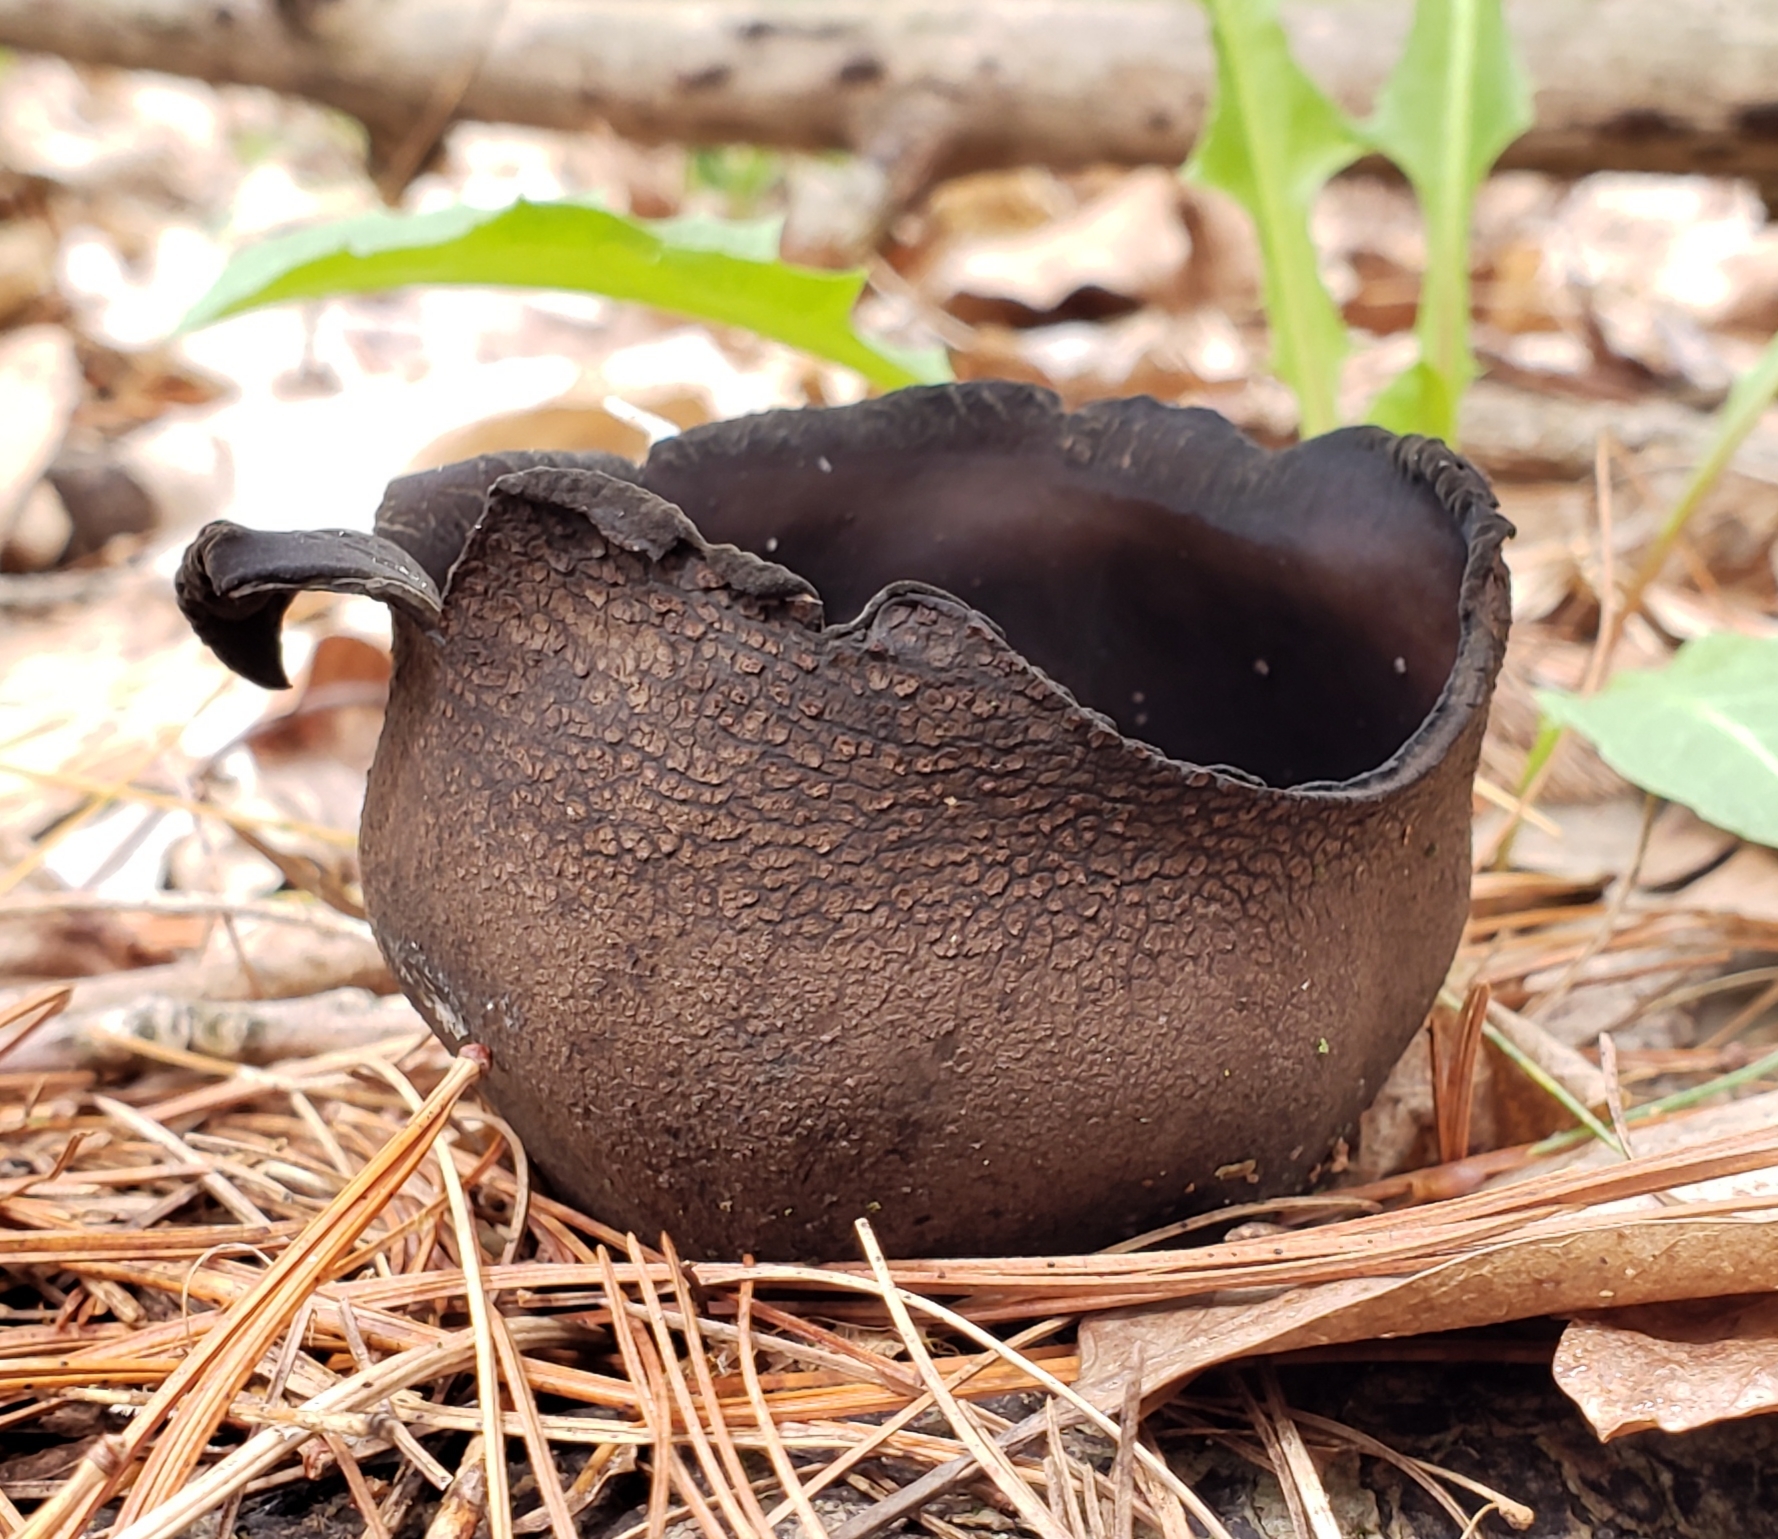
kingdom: Fungi
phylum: Ascomycota
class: Pezizomycetes
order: Pezizales
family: Sarcosomataceae
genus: Urnula
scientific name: Urnula craterium
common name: Devil's urn
